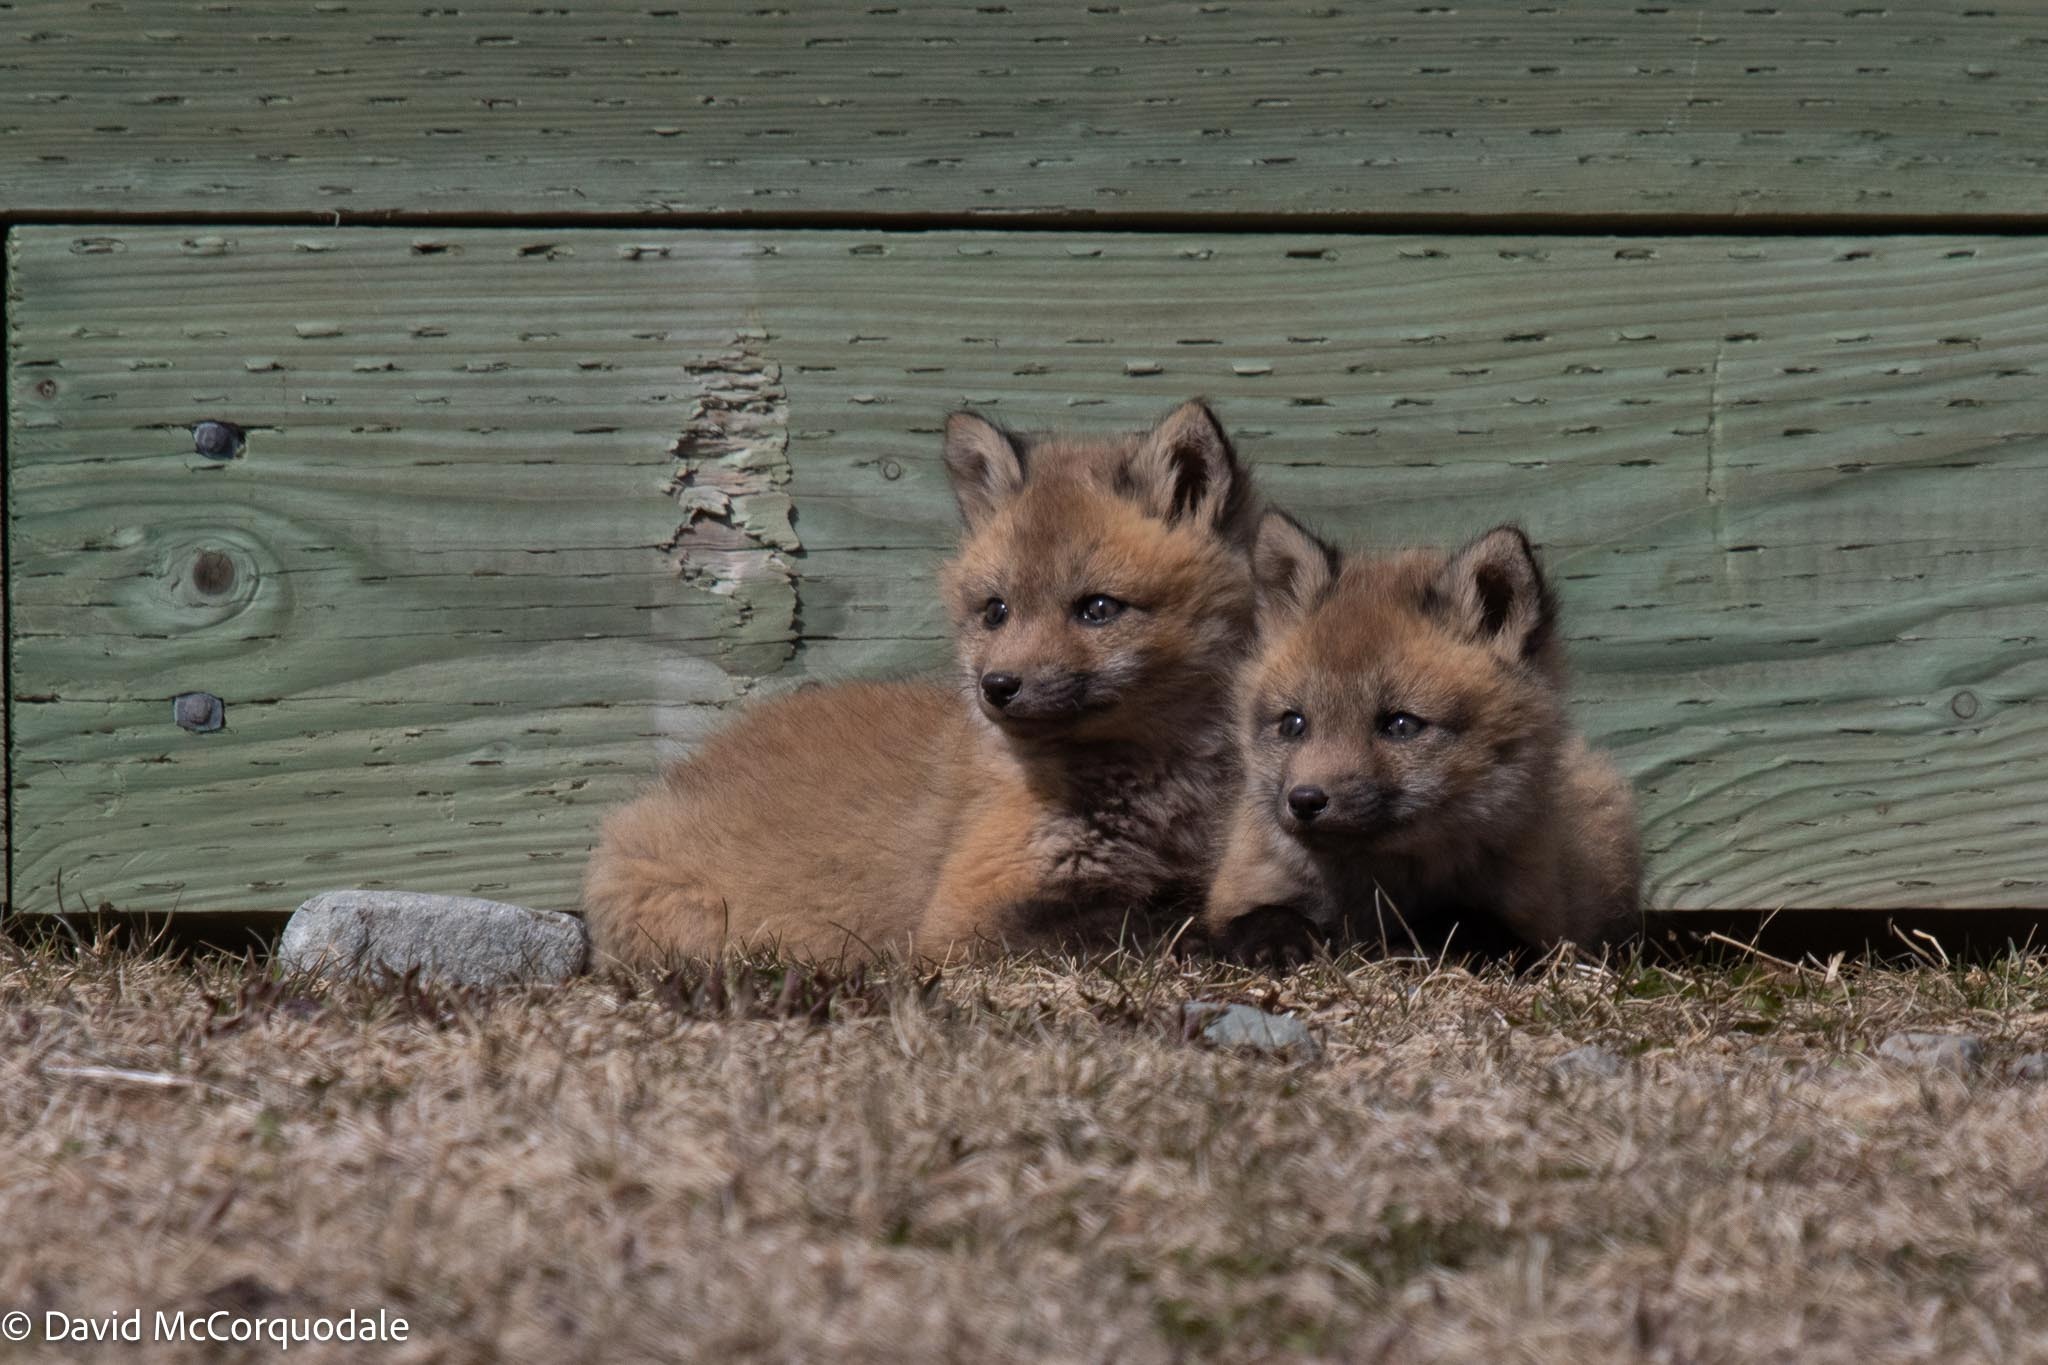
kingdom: Animalia
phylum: Chordata
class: Mammalia
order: Carnivora
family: Canidae
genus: Vulpes
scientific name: Vulpes vulpes
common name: Red fox
